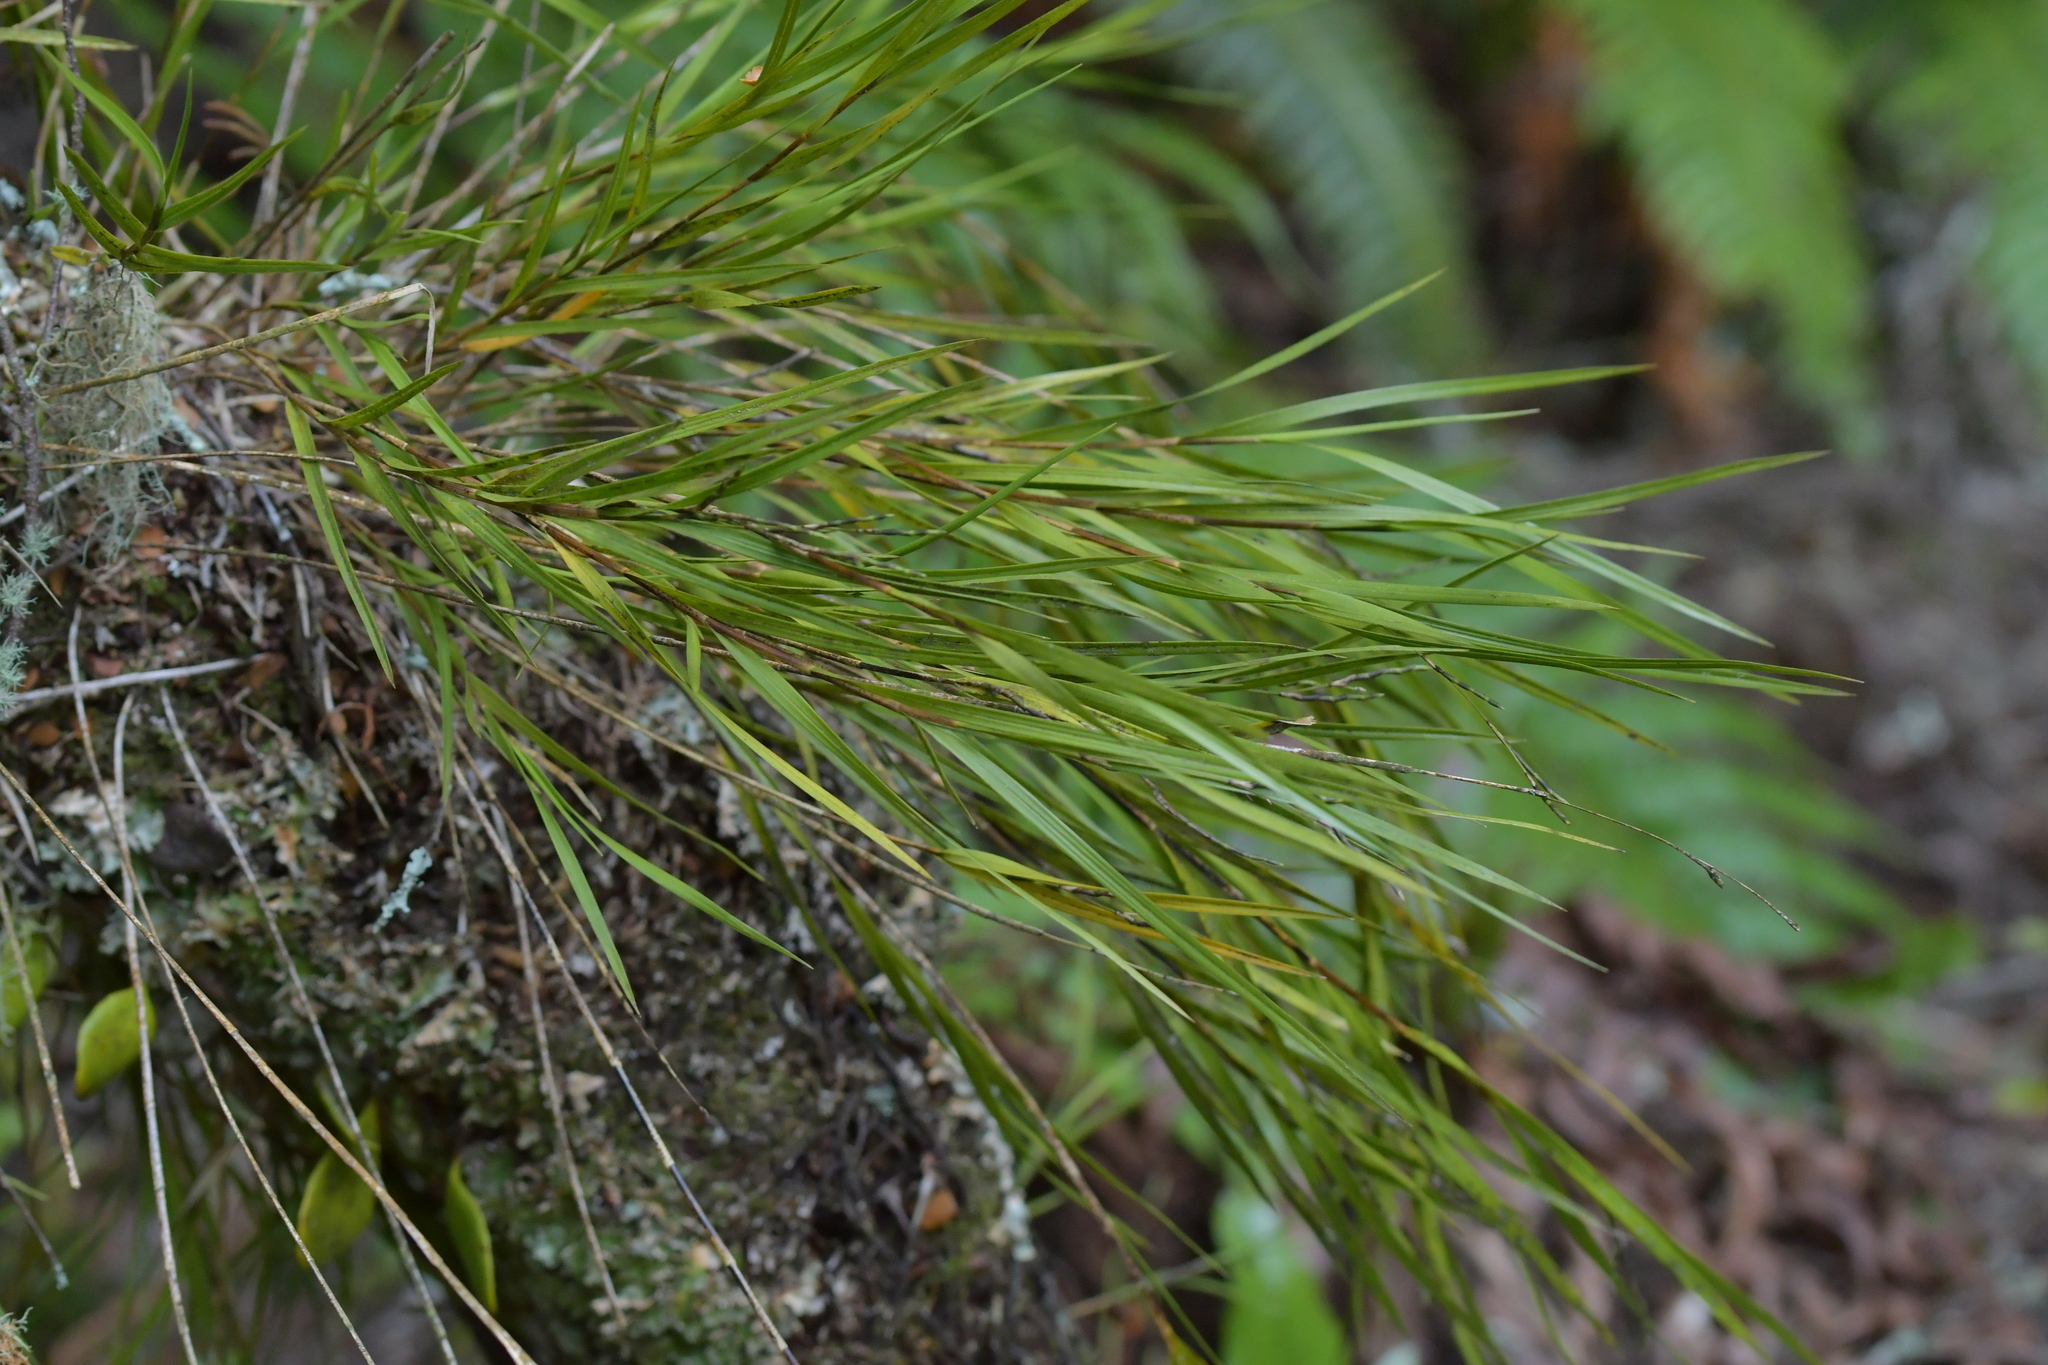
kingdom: Plantae
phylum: Tracheophyta
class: Liliopsida
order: Asparagales
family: Orchidaceae
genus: Earina
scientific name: Earina mucronata
